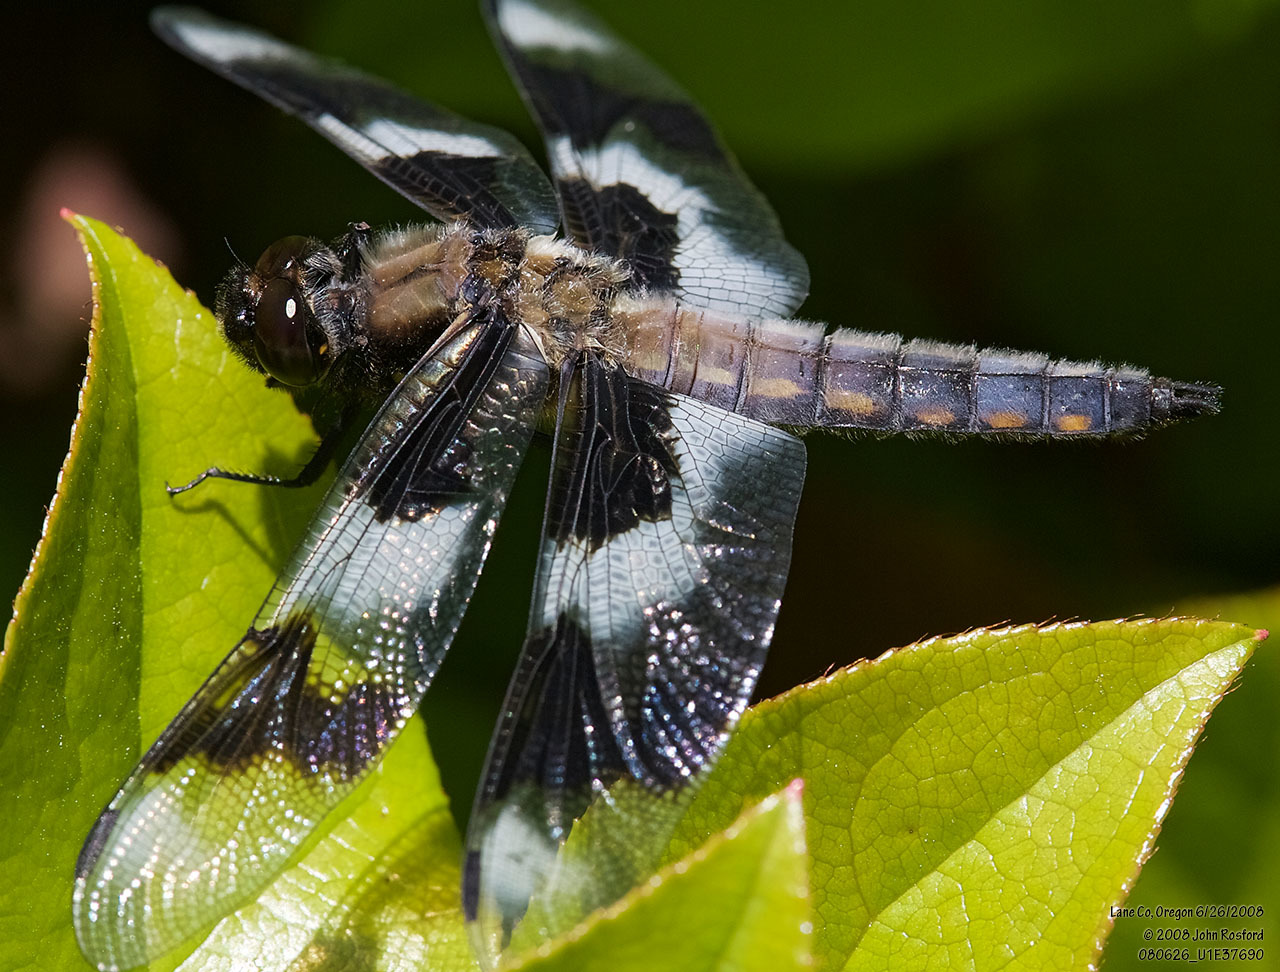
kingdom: Animalia
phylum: Arthropoda
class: Insecta
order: Odonata
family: Libellulidae
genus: Libellula
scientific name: Libellula forensis
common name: Eight-spotted skimmer
